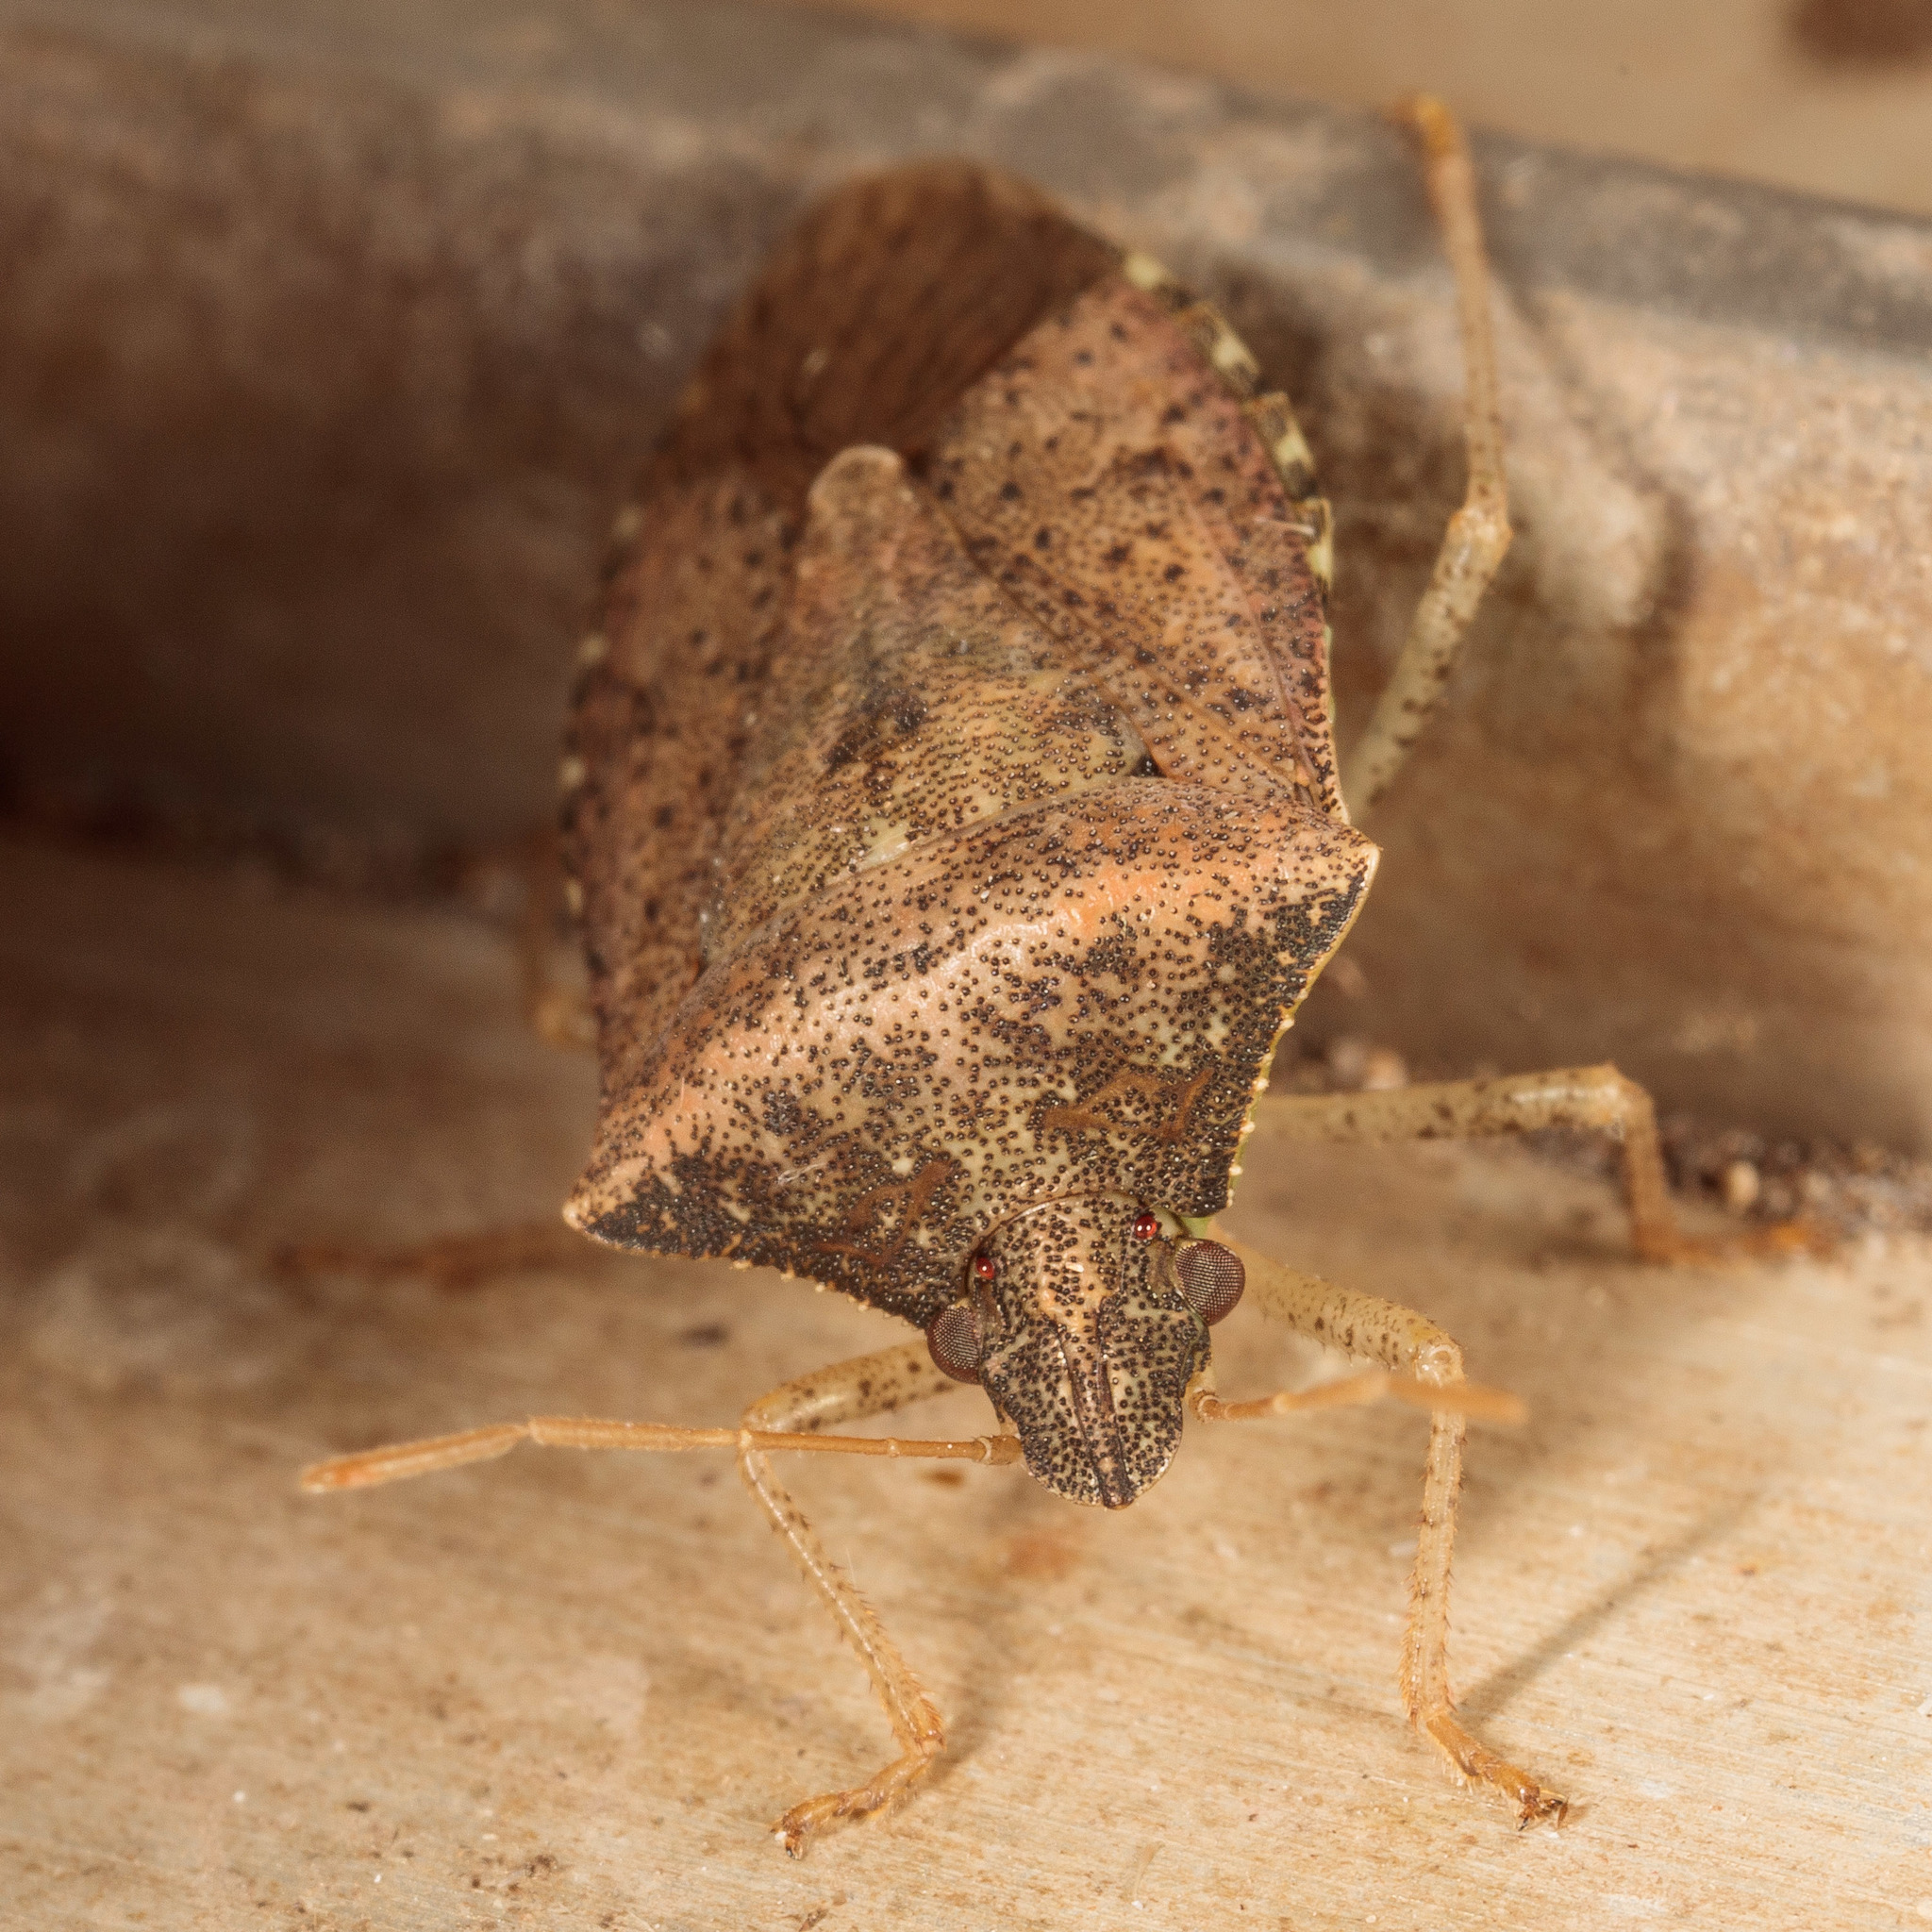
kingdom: Animalia
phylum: Arthropoda
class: Insecta
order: Hemiptera
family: Pentatomidae
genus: Euschistus
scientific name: Euschistus obscurus
